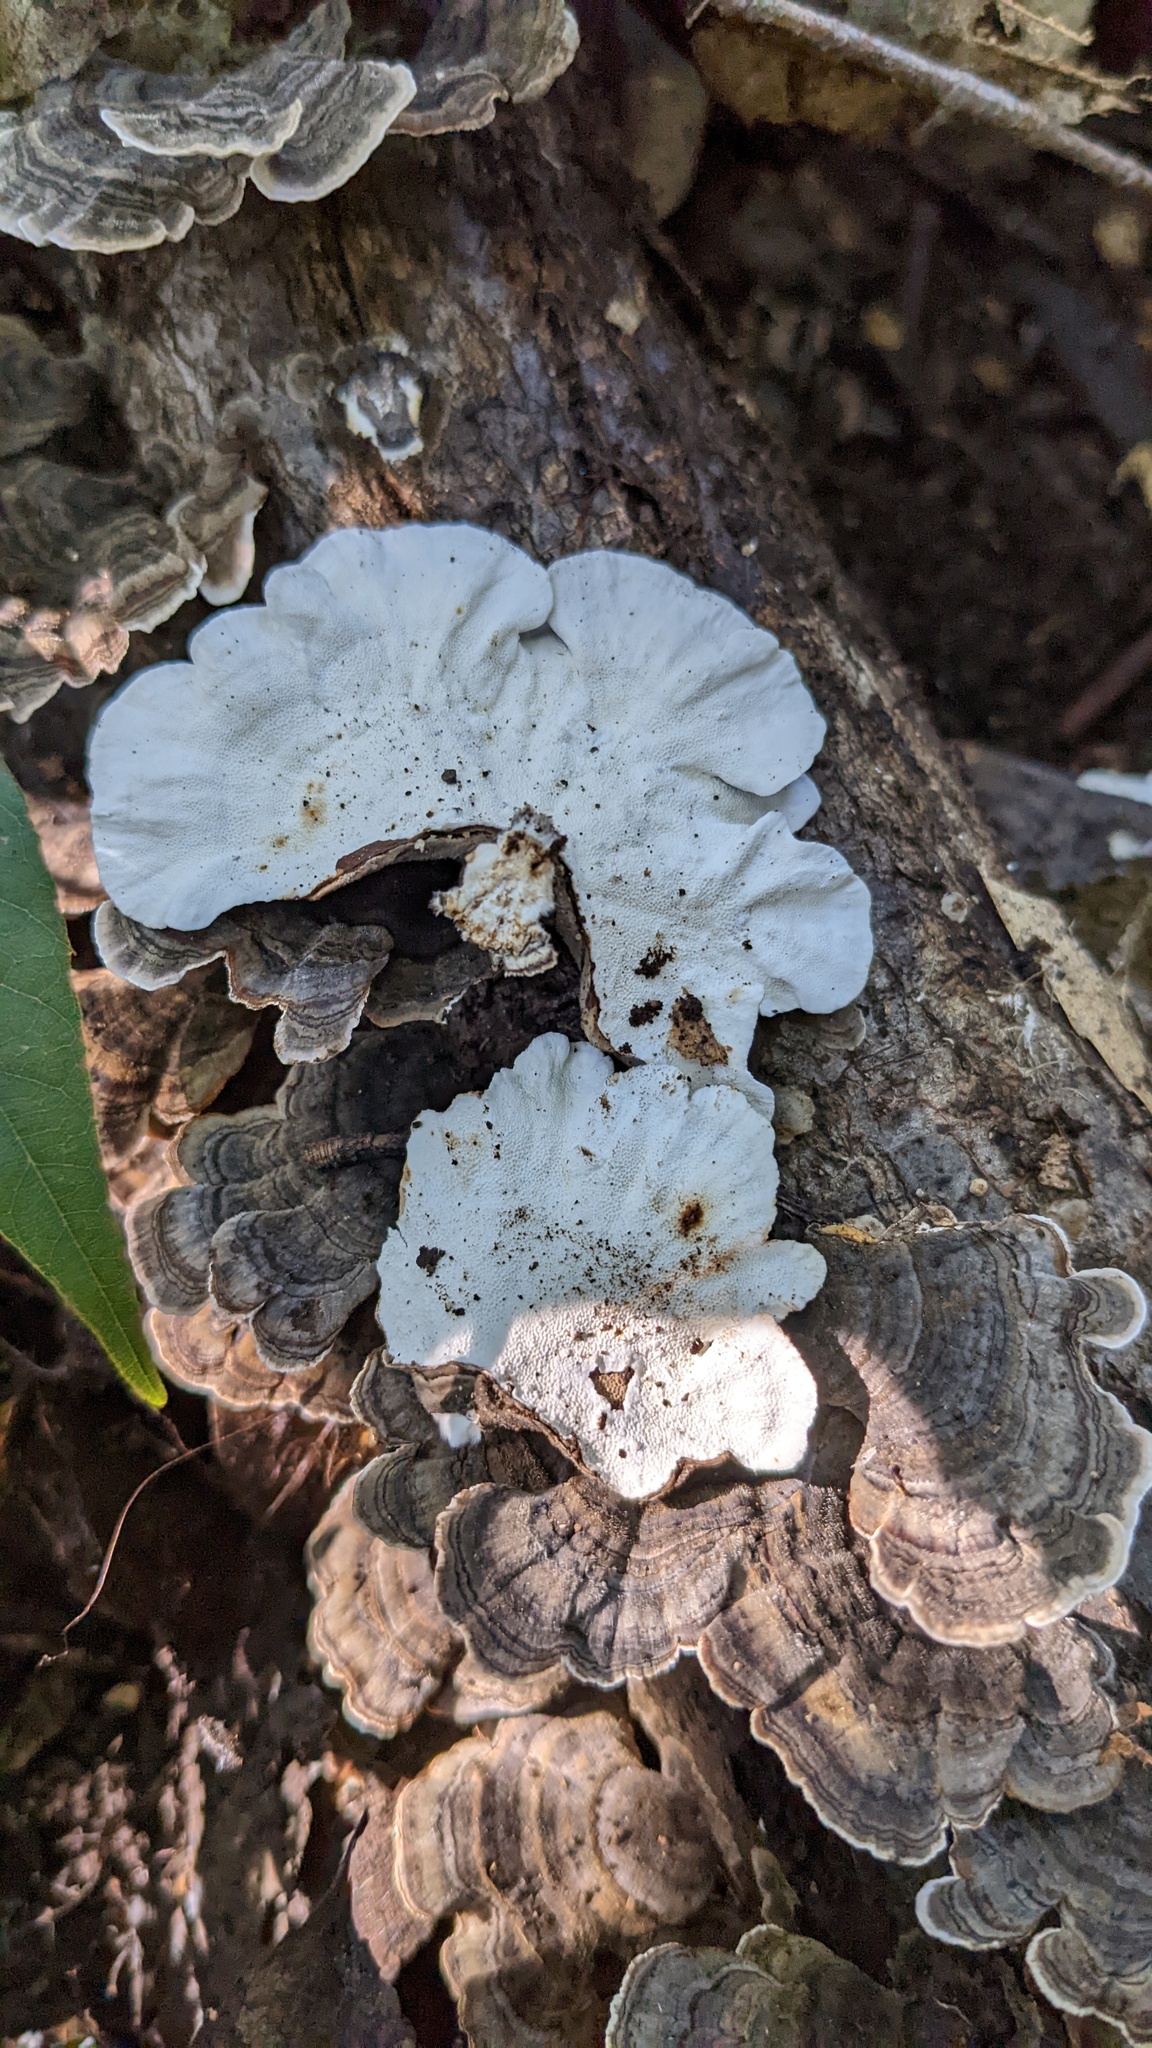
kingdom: Fungi
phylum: Basidiomycota
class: Agaricomycetes
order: Polyporales
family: Polyporaceae
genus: Trametes
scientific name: Trametes versicolor
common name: Turkeytail
